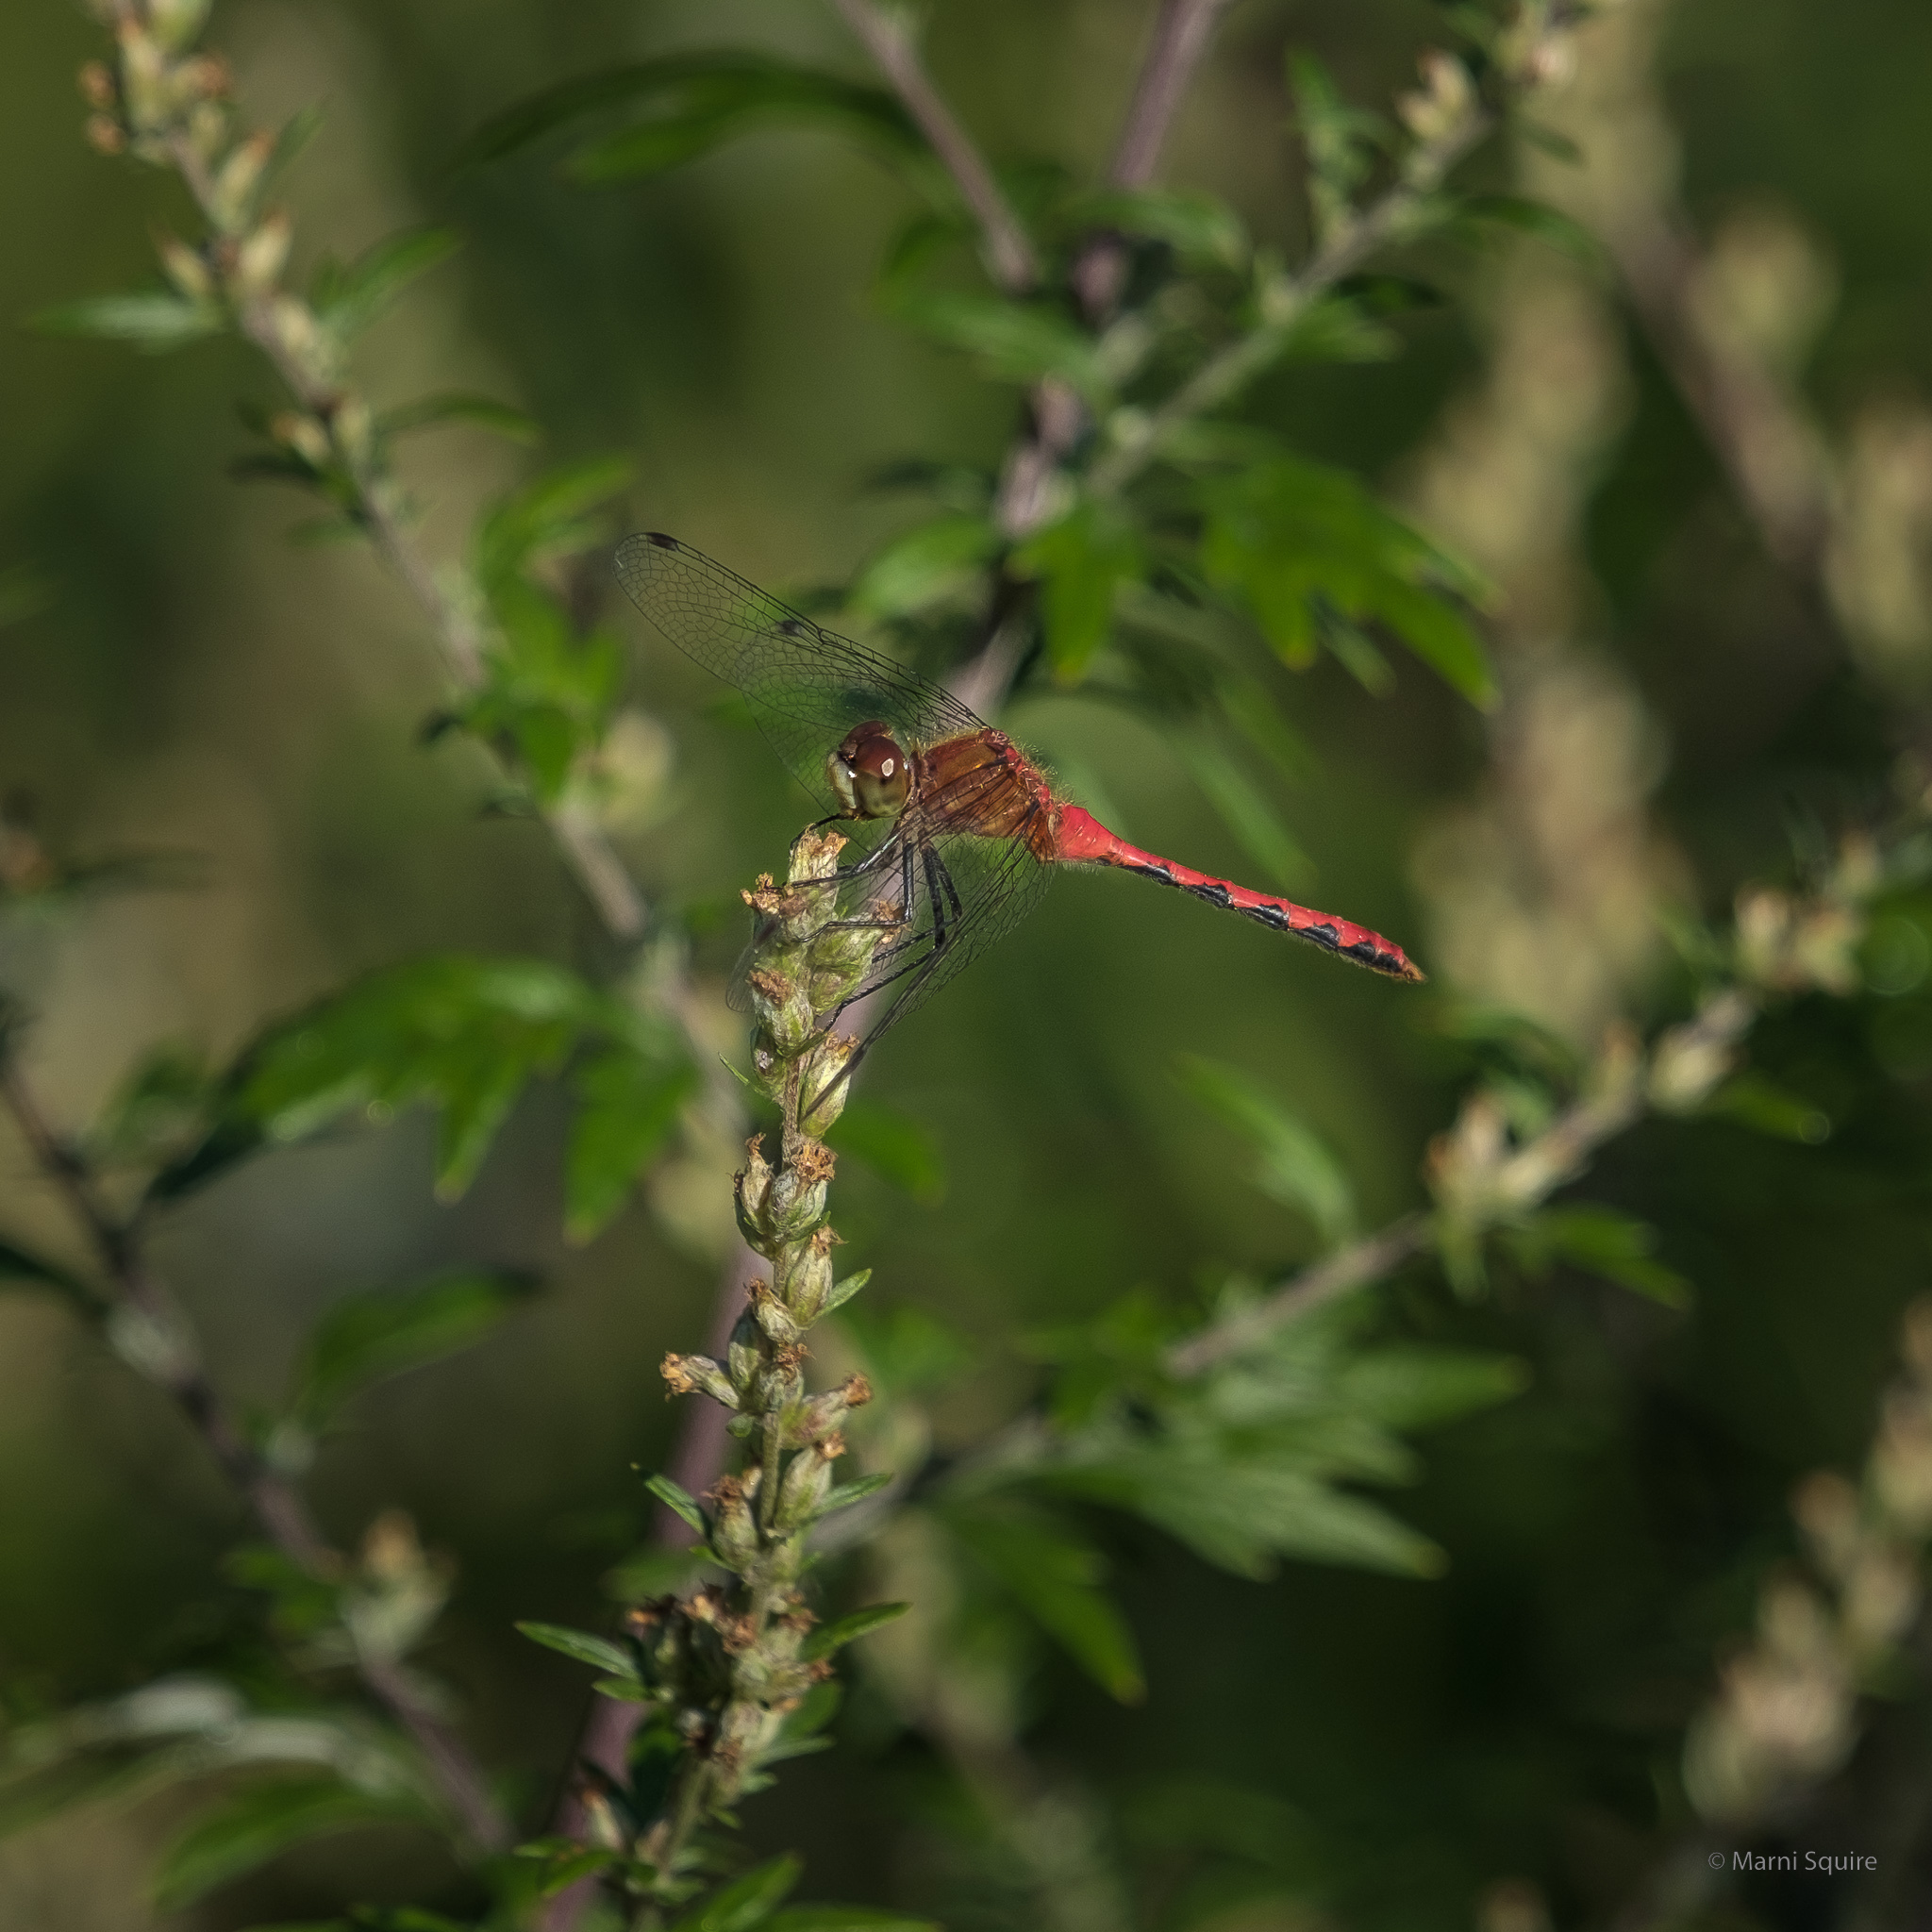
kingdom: Animalia
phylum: Arthropoda
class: Insecta
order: Odonata
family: Libellulidae
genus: Sympetrum
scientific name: Sympetrum obtrusum
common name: White-faced meadowhawk
